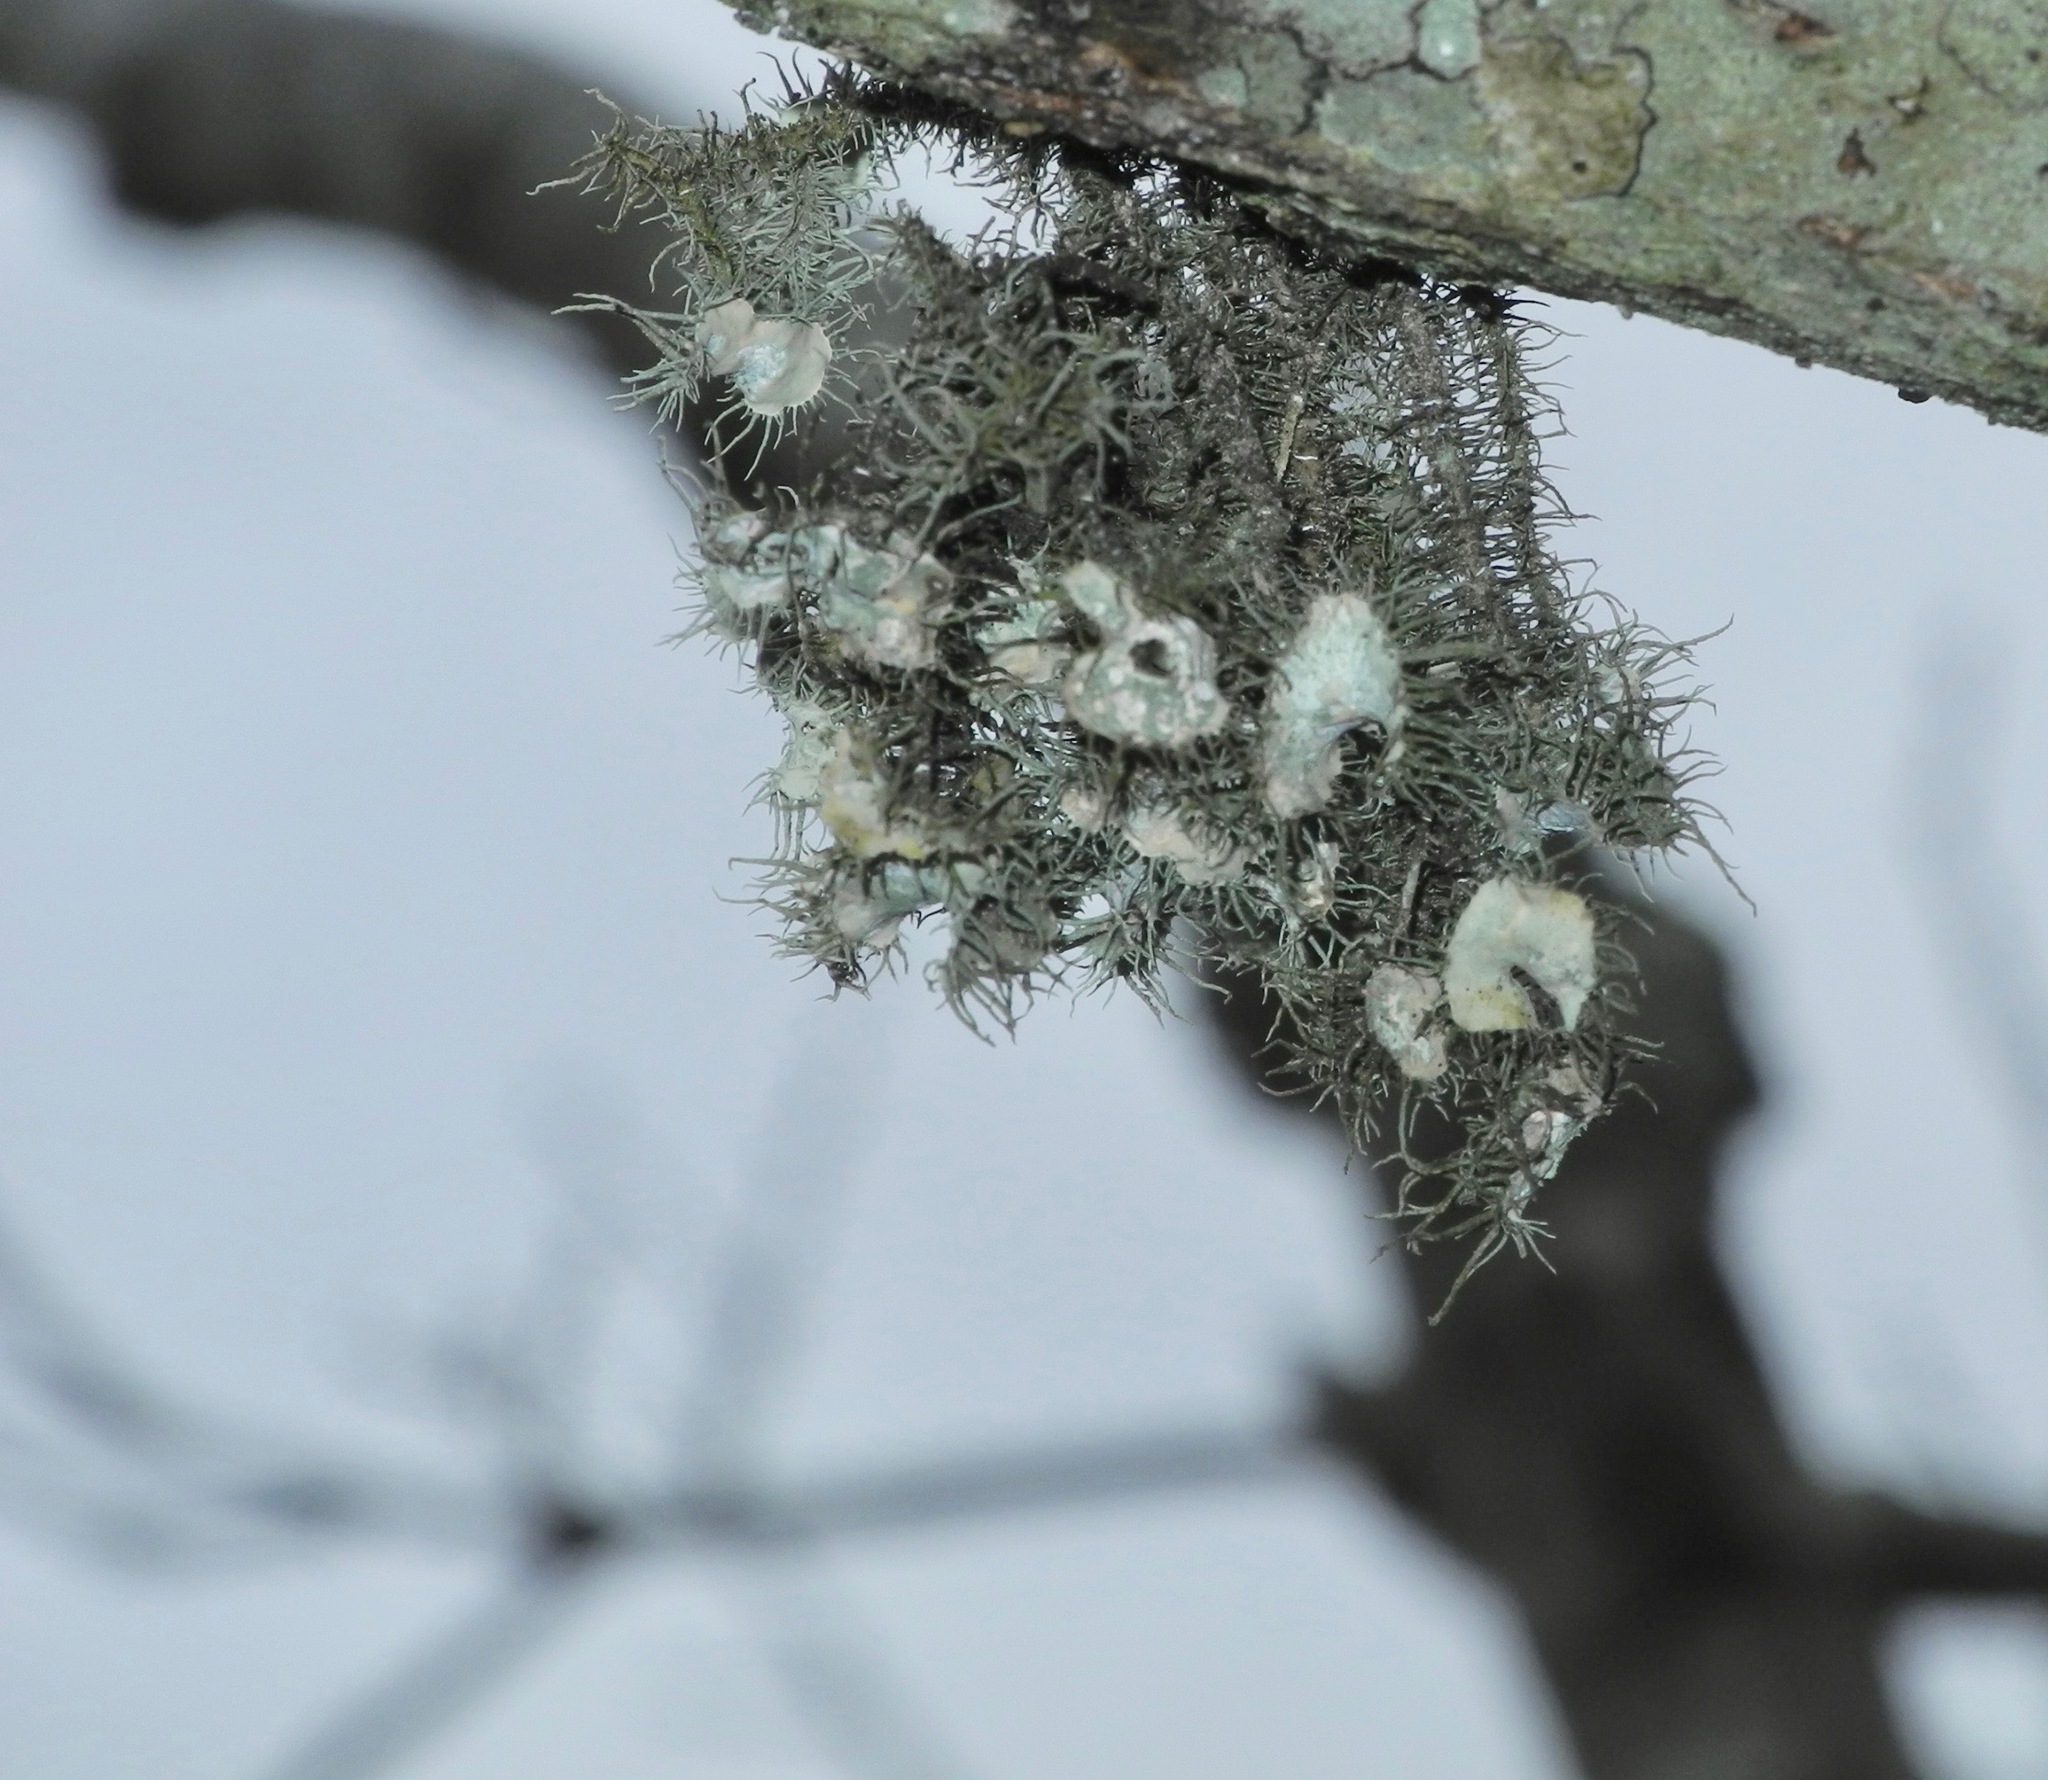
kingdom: Fungi
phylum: Ascomycota
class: Lecanoromycetes
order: Lecanorales
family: Parmeliaceae
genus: Usnea
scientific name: Usnea strigosa
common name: Bushy beard lichen
